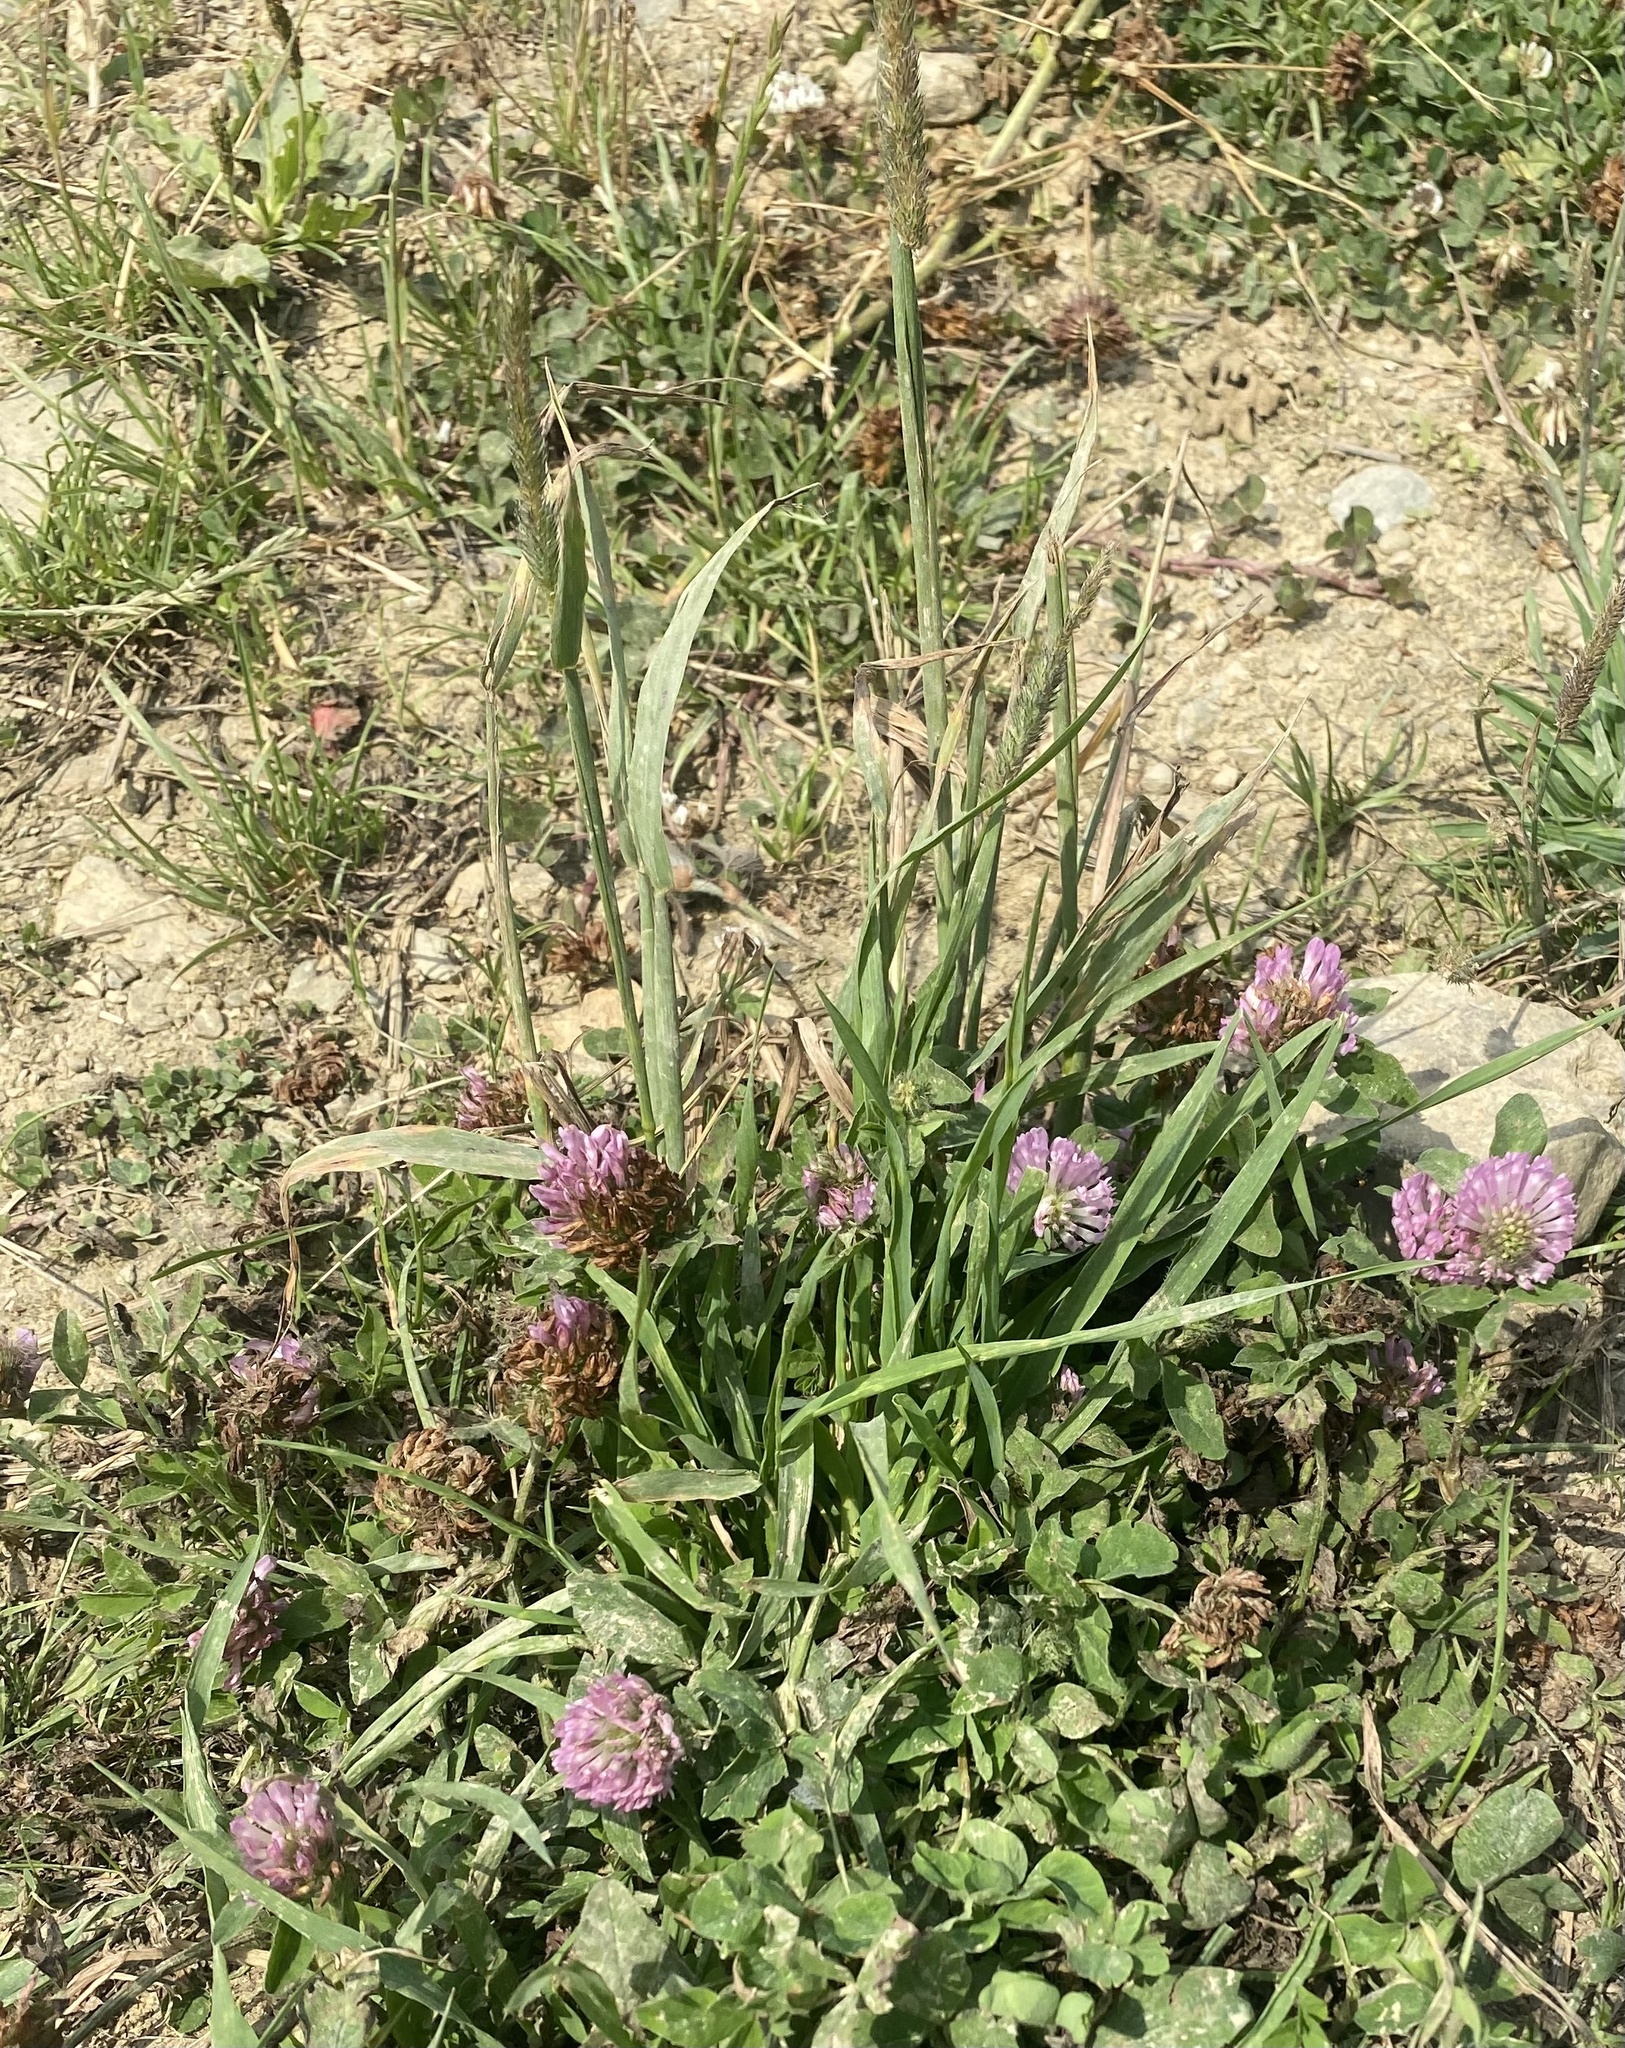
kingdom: Plantae
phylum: Tracheophyta
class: Magnoliopsida
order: Fabales
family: Fabaceae
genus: Trifolium
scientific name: Trifolium pratense
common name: Red clover
